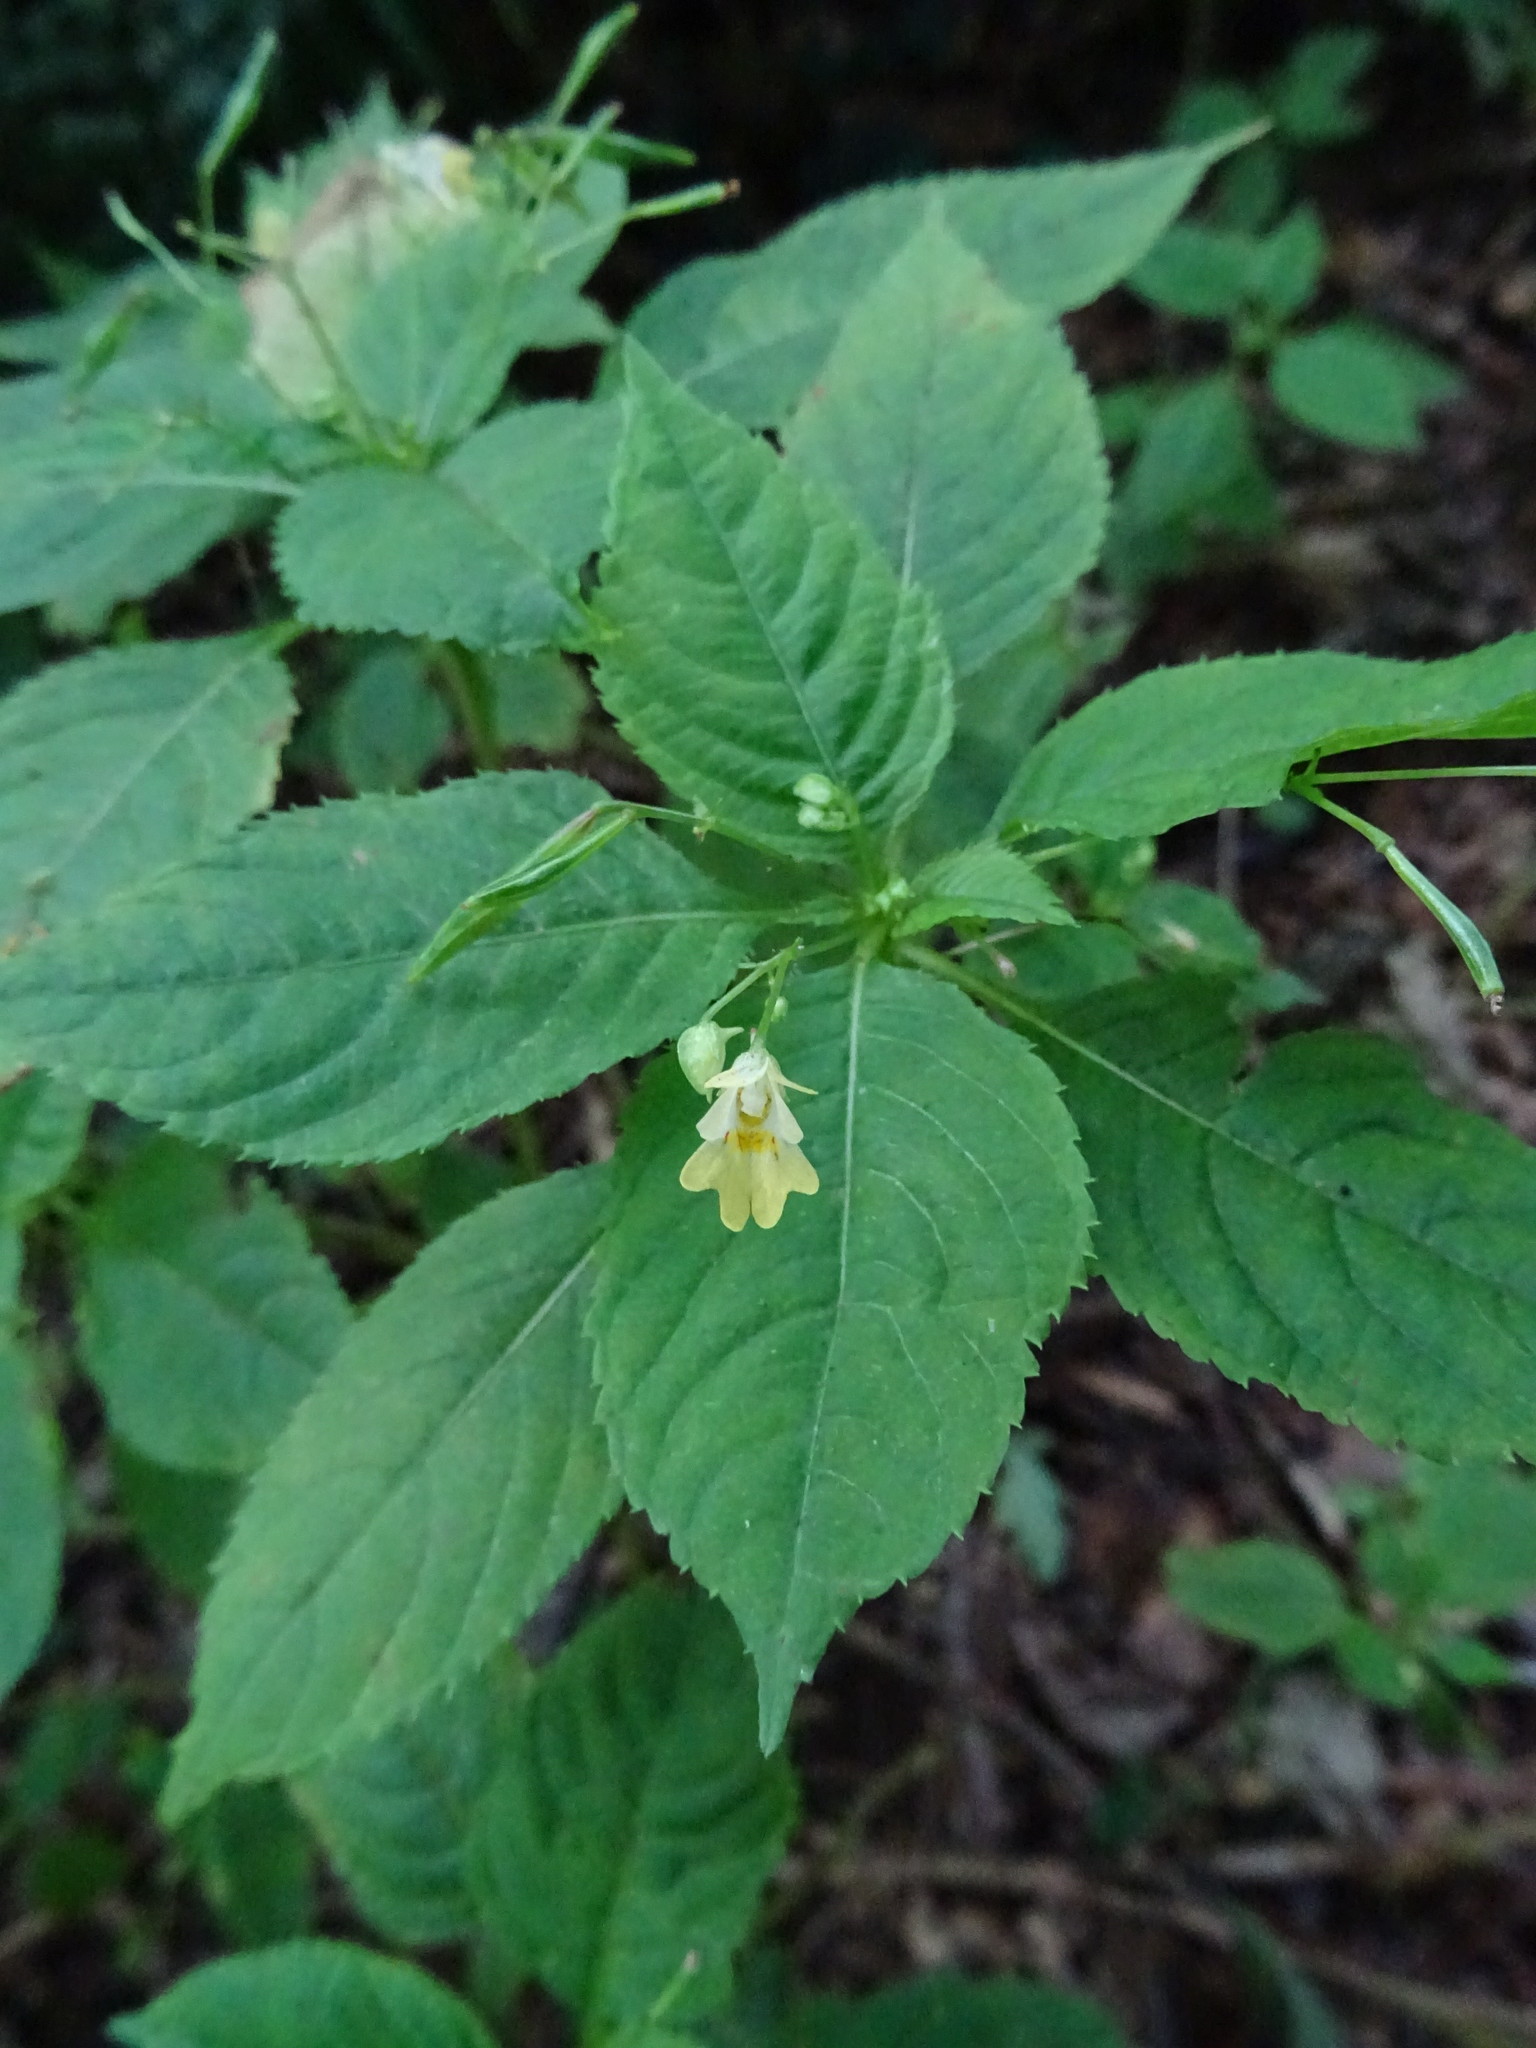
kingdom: Plantae
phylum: Tracheophyta
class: Magnoliopsida
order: Ericales
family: Balsaminaceae
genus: Impatiens
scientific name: Impatiens parviflora
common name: Small balsam
